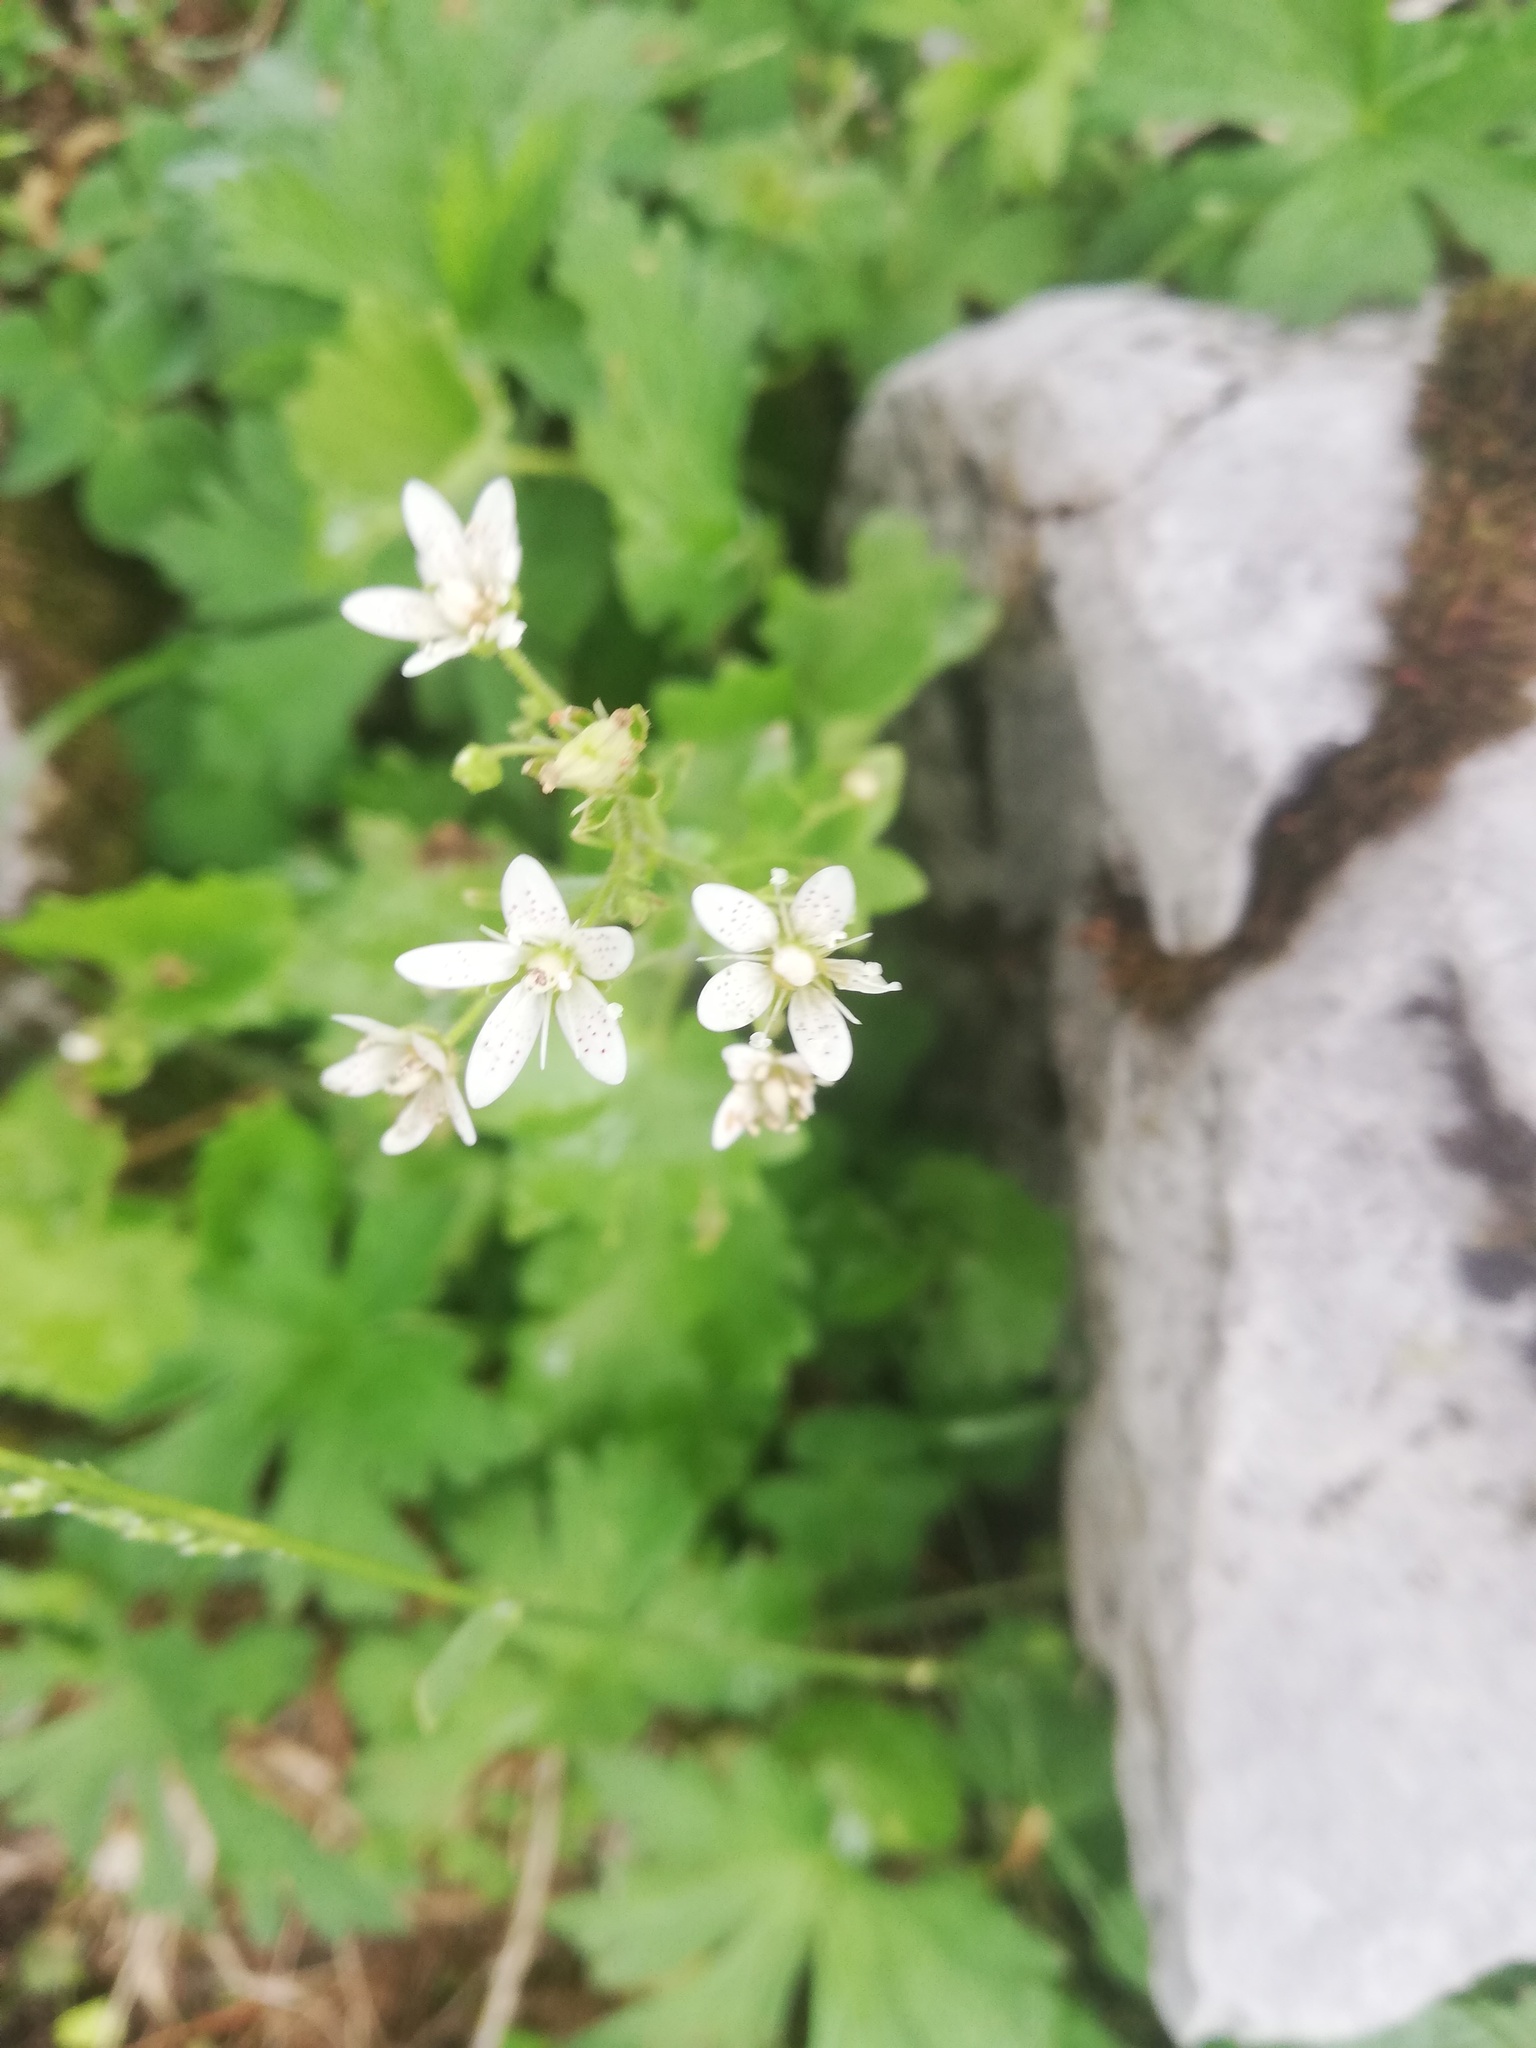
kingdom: Plantae
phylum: Tracheophyta
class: Magnoliopsida
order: Saxifragales
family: Saxifragaceae
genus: Saxifraga
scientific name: Saxifraga rotundifolia
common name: Round-leaved saxifrage
